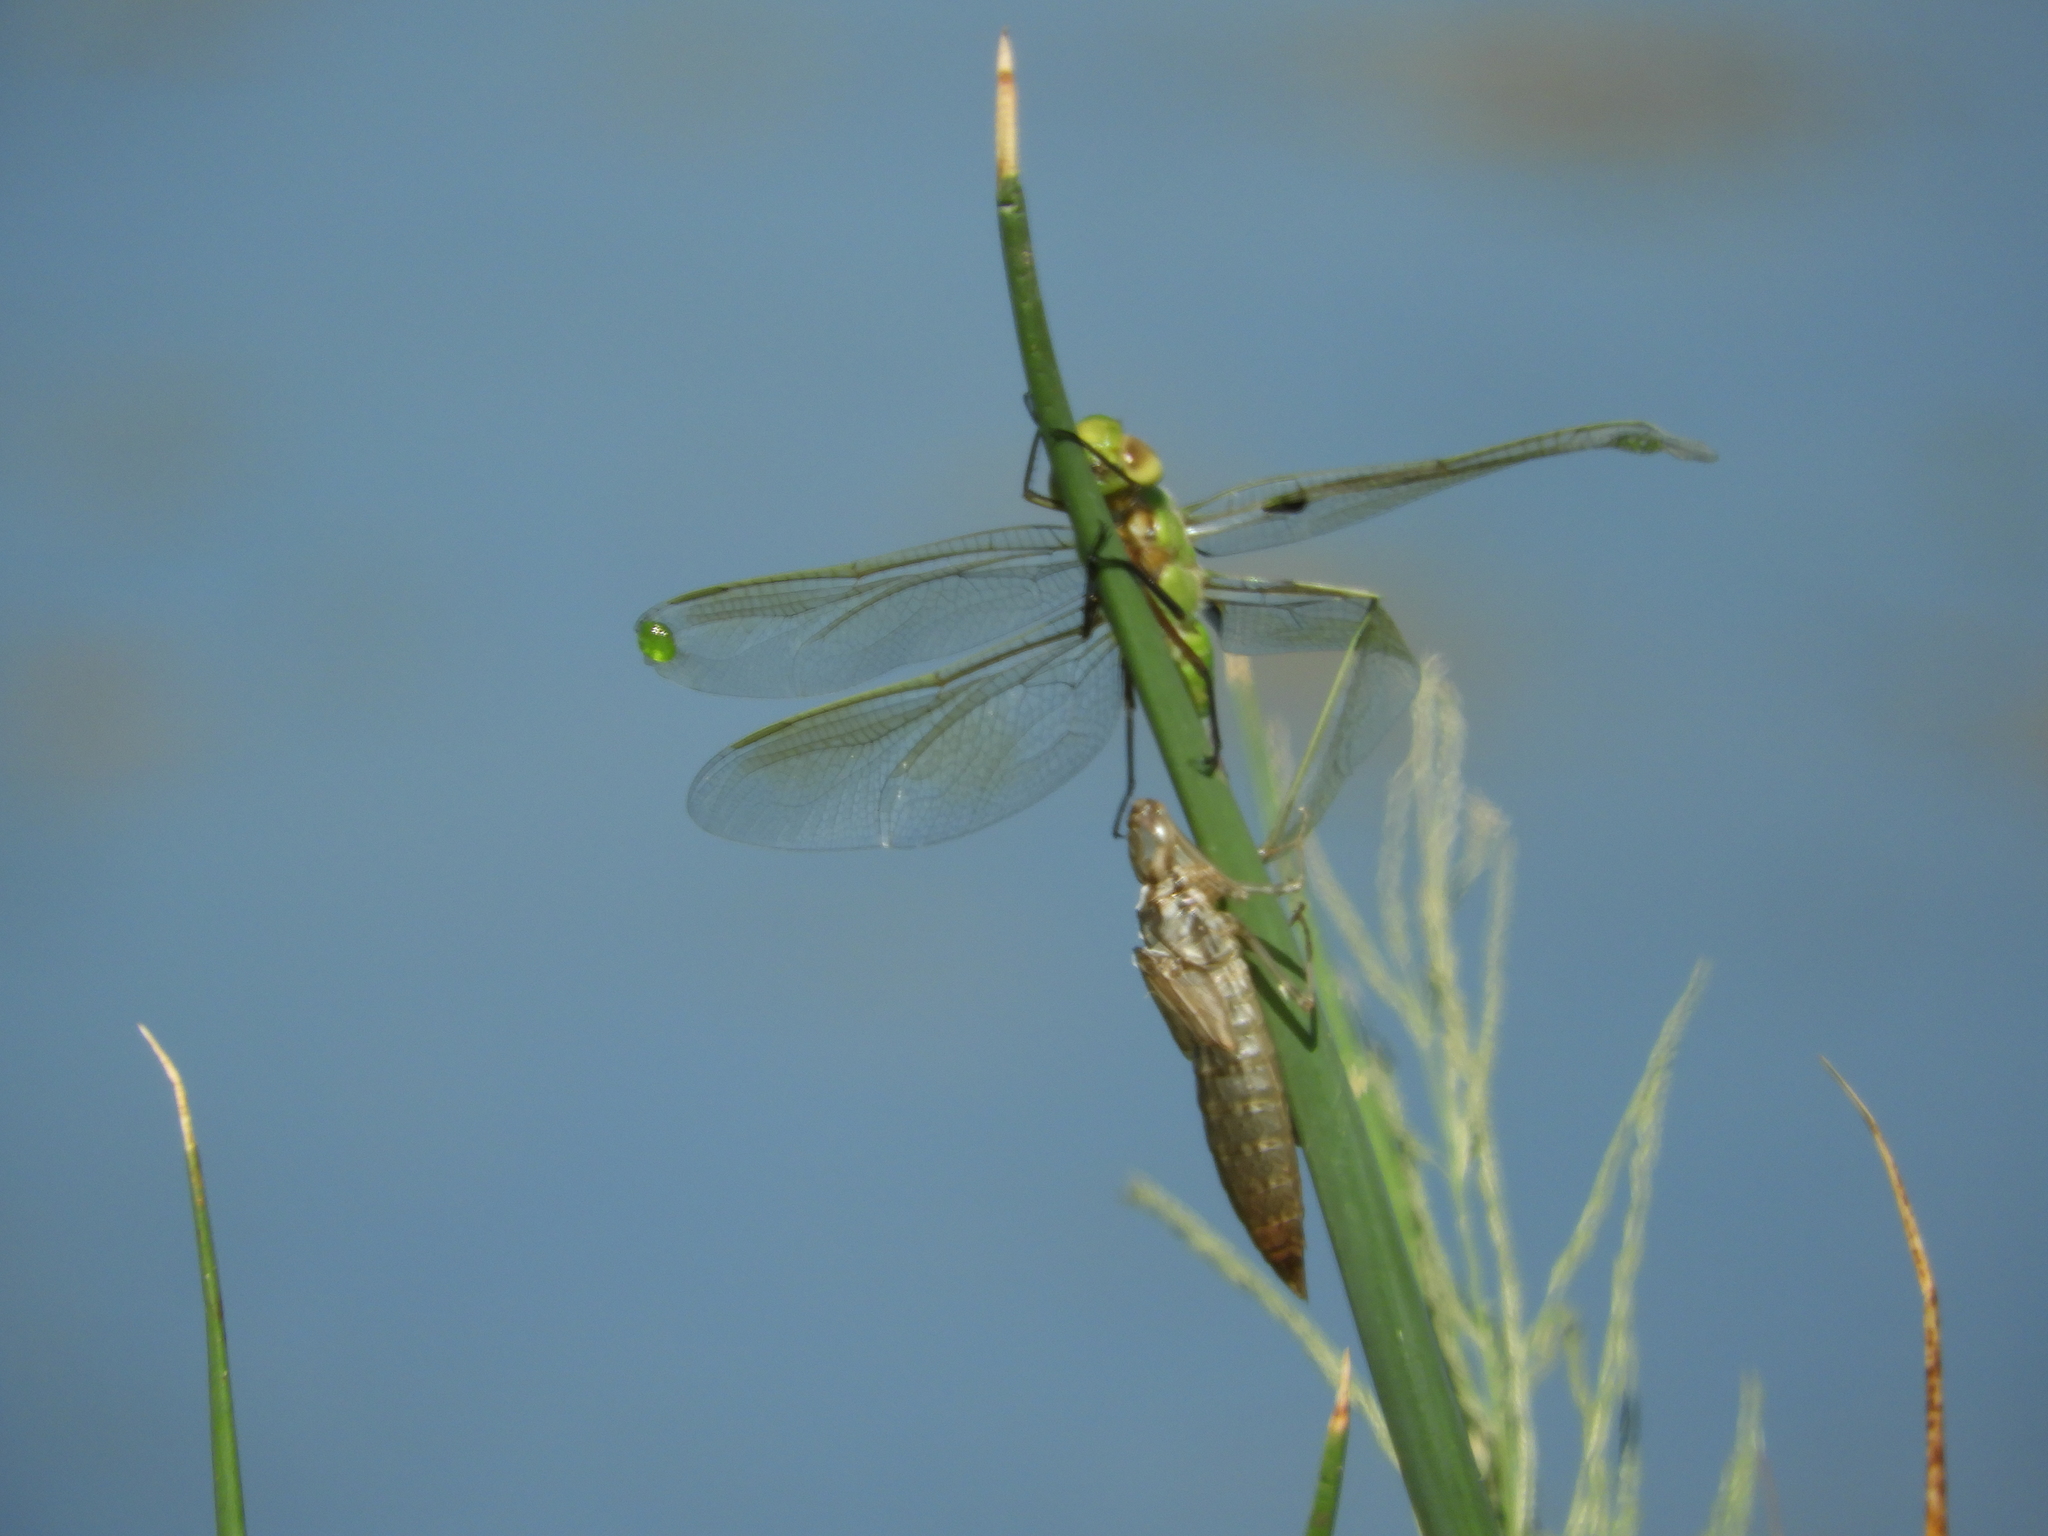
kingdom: Animalia
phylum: Arthropoda
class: Insecta
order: Odonata
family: Aeshnidae
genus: Anax
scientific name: Anax junius
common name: Common green darner
